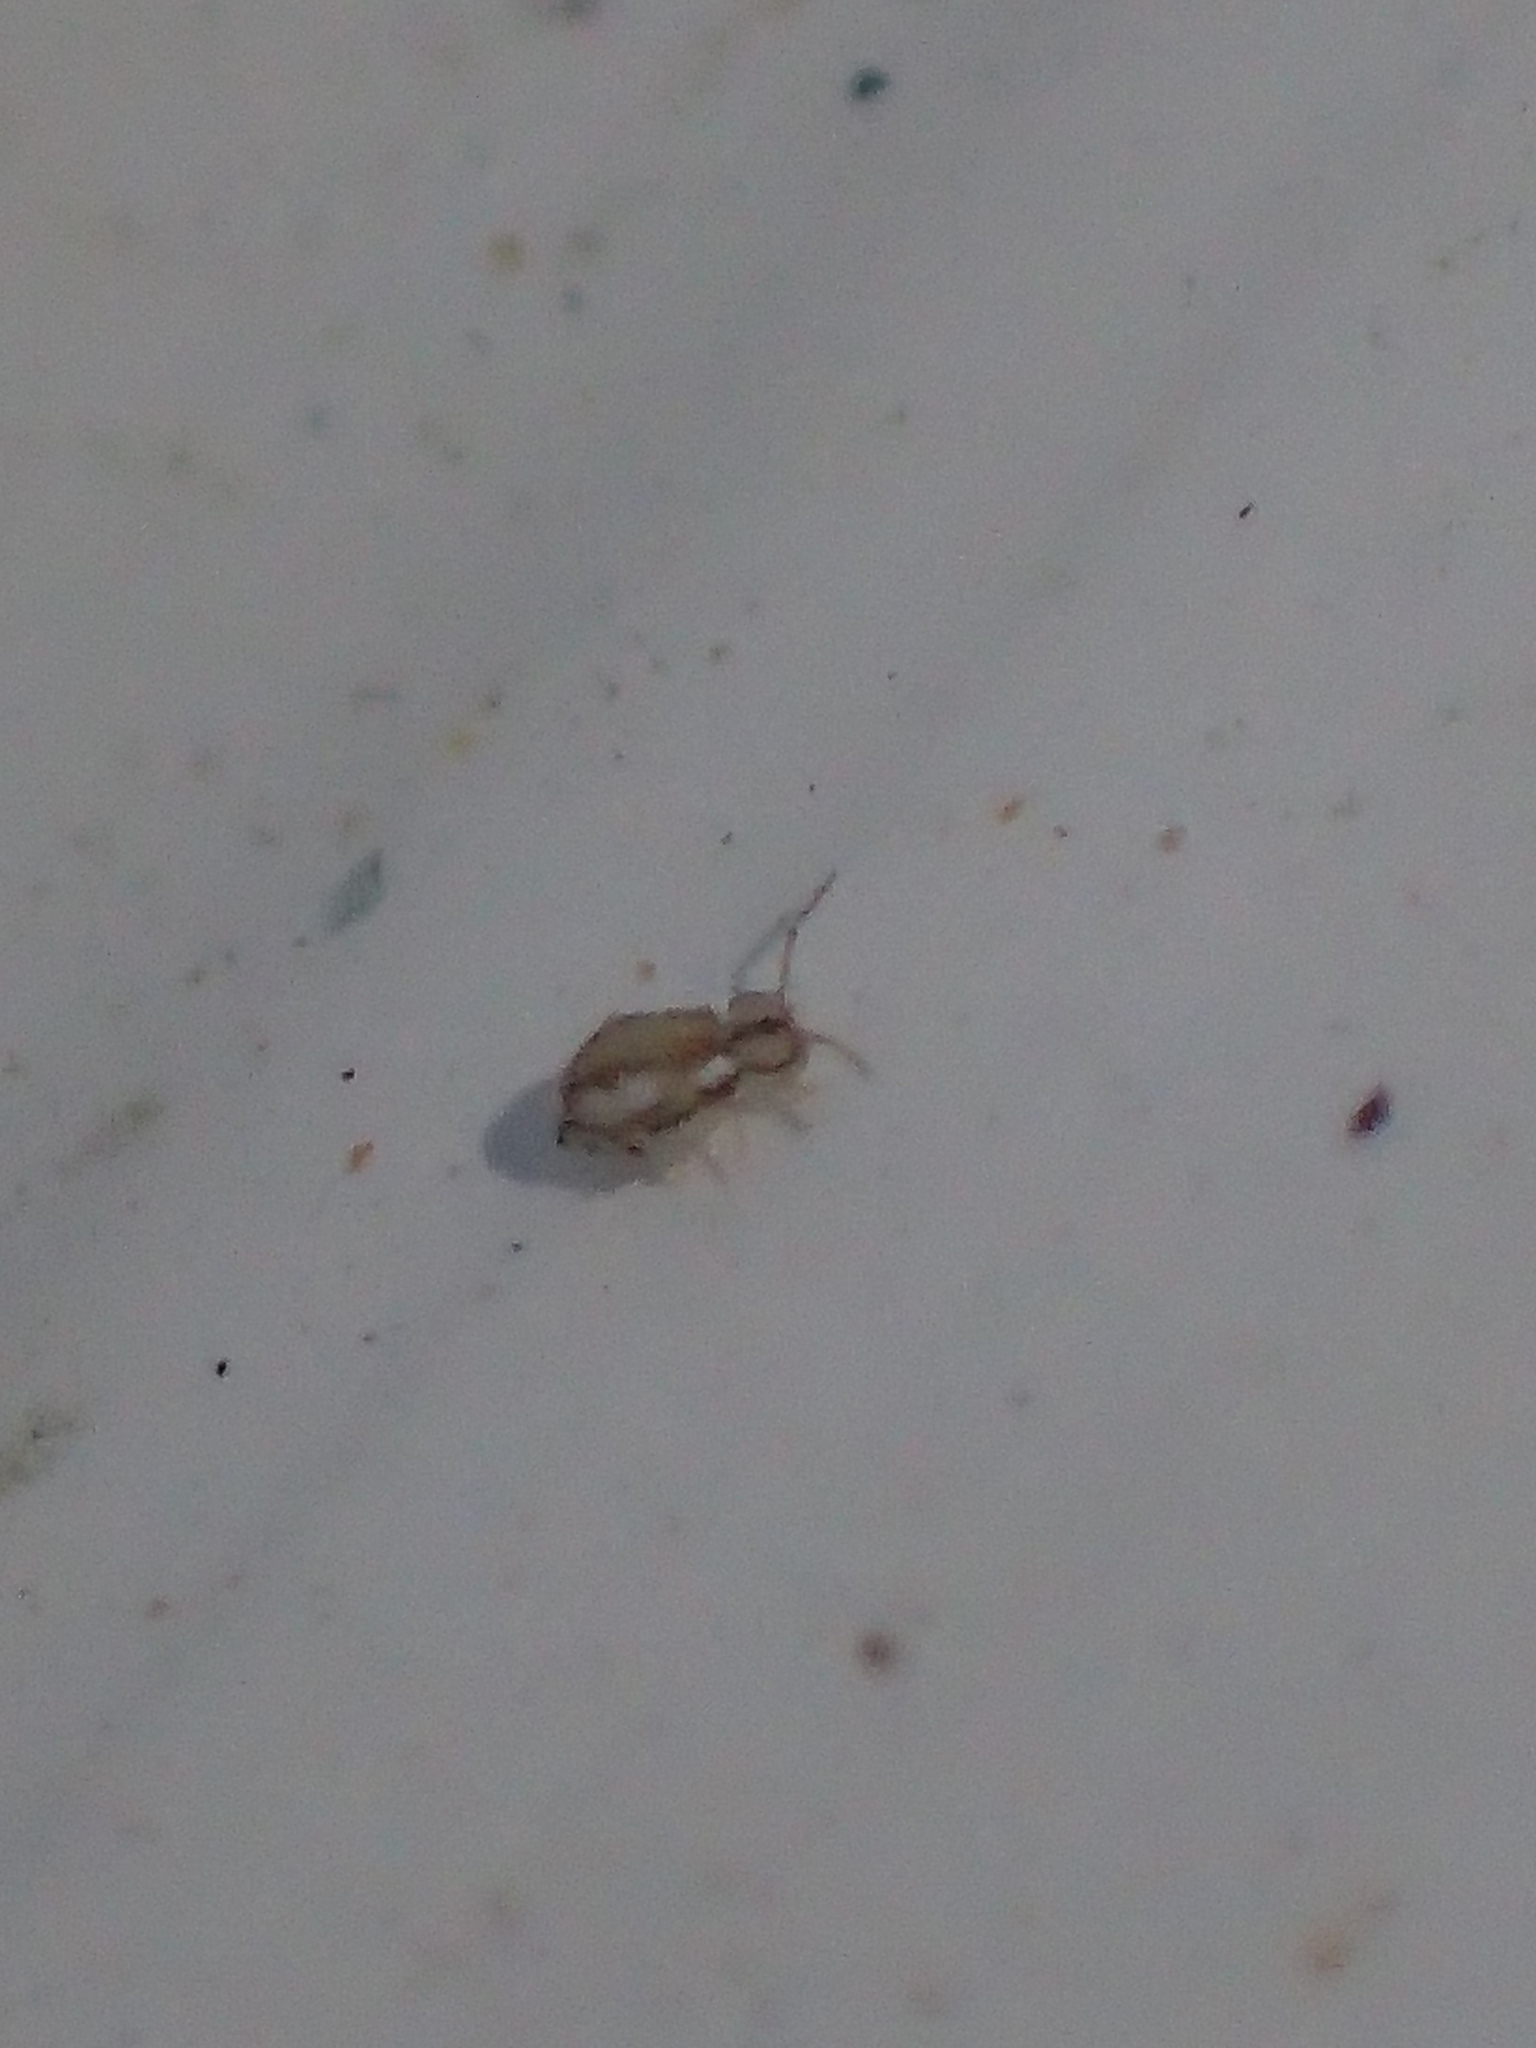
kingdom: Animalia
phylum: Arthropoda
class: Collembola
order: Symphypleona
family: Bourletiellidae
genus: Prorastriopes
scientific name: Prorastriopes coalingaensis
